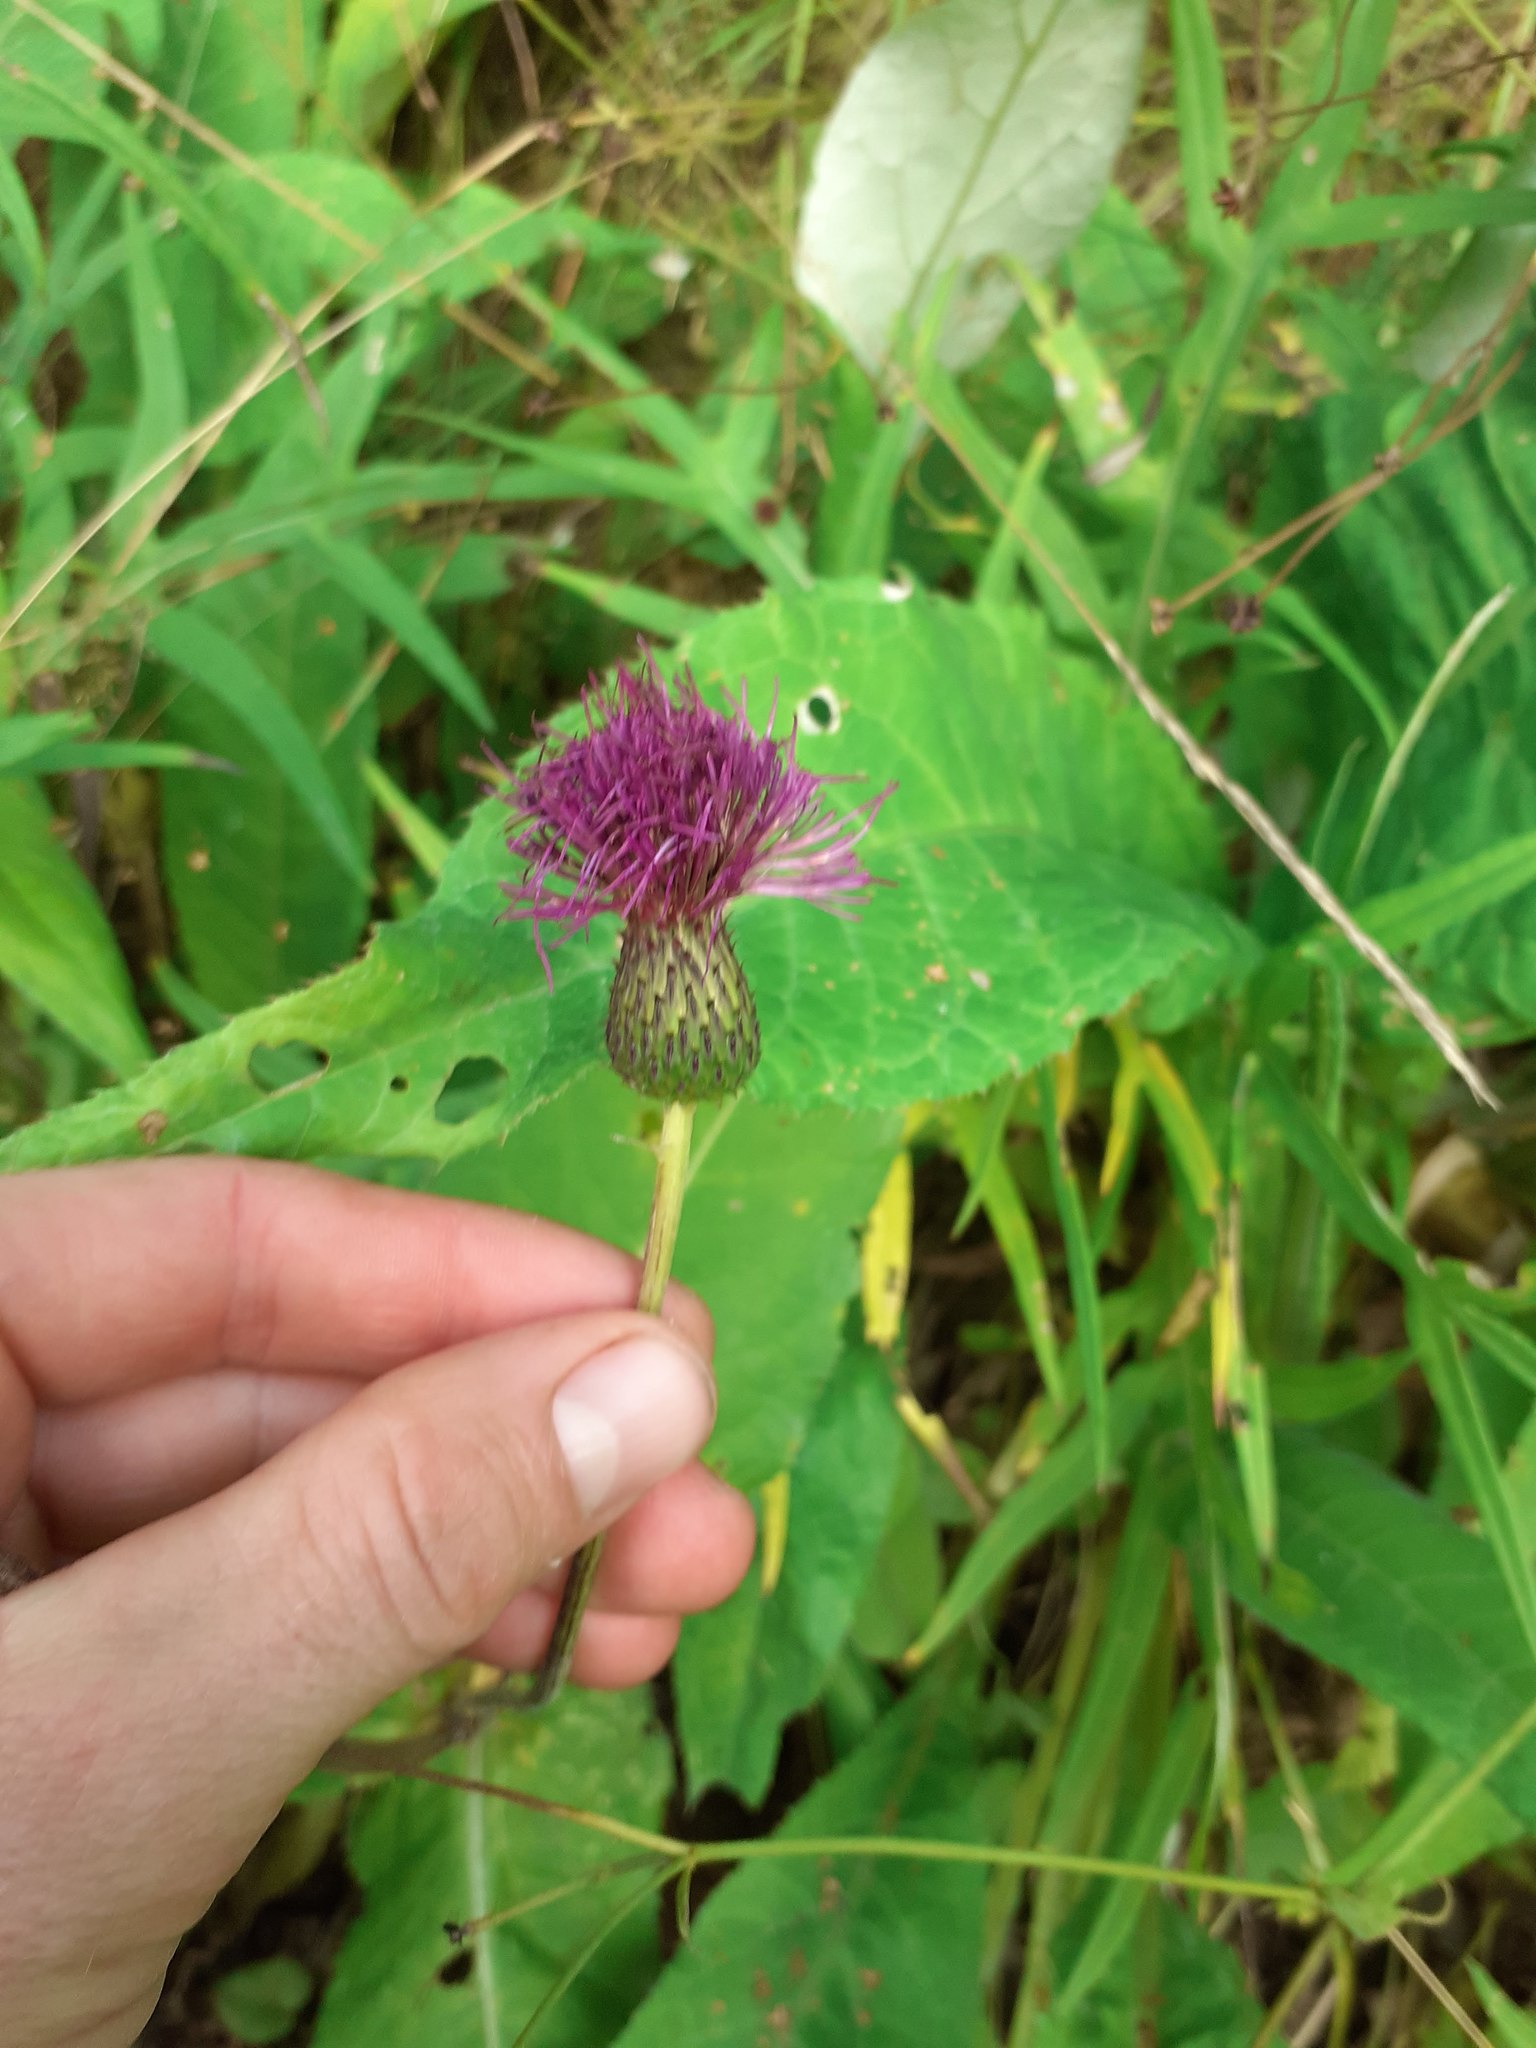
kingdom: Plantae
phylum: Tracheophyta
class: Magnoliopsida
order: Asterales
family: Asteraceae
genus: Cirsium
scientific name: Cirsium heterophyllum
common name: Melancholy thistle
